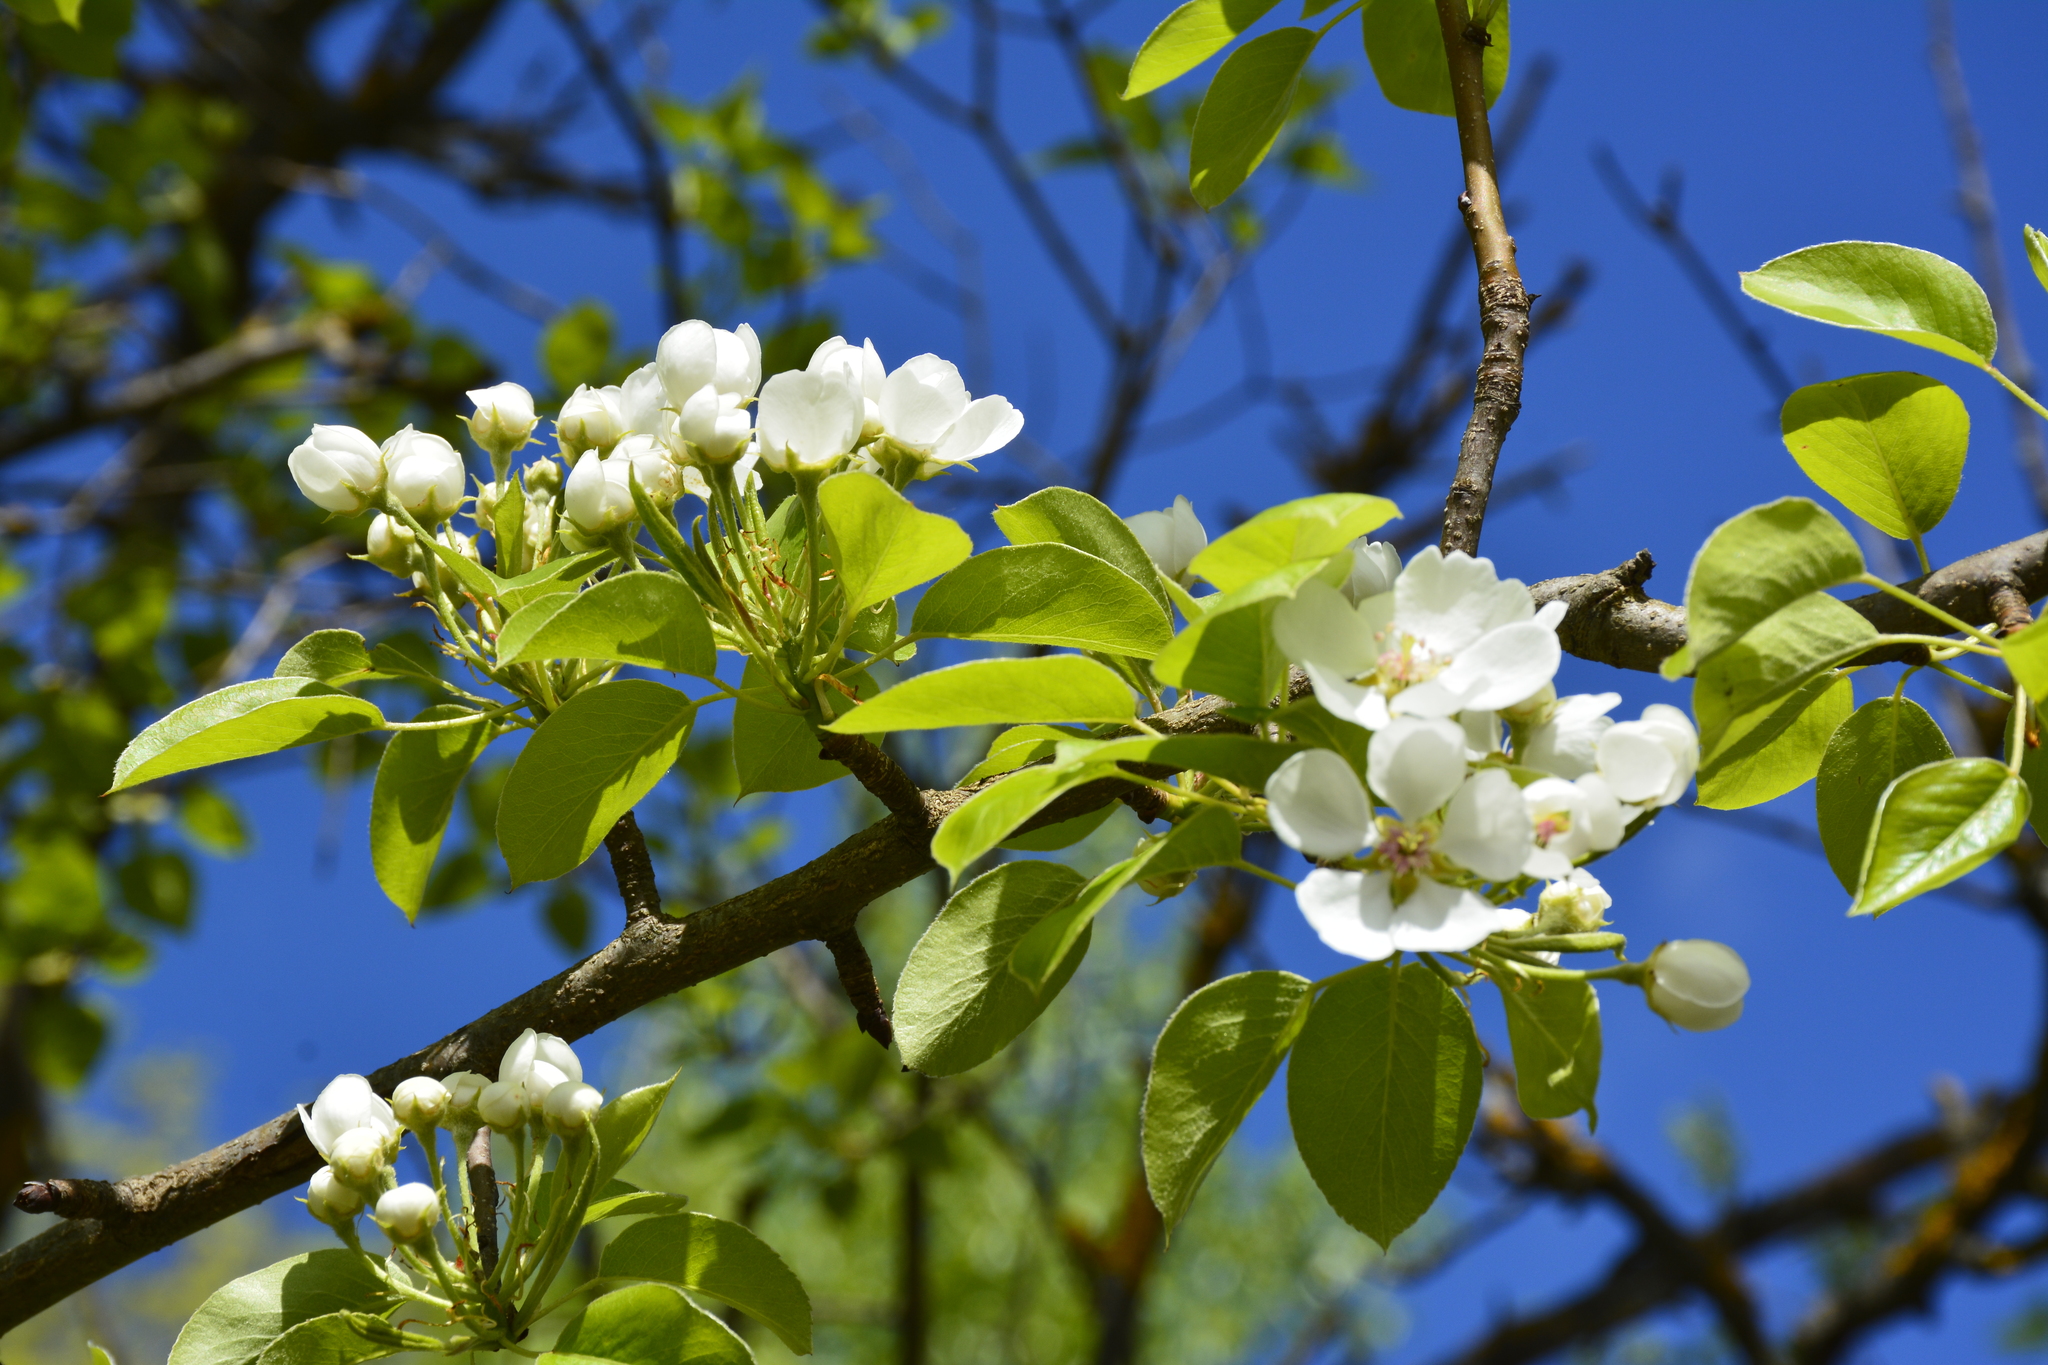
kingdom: Plantae
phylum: Tracheophyta
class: Magnoliopsida
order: Rosales
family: Rosaceae
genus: Pyrus
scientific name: Pyrus communis
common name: Pear
